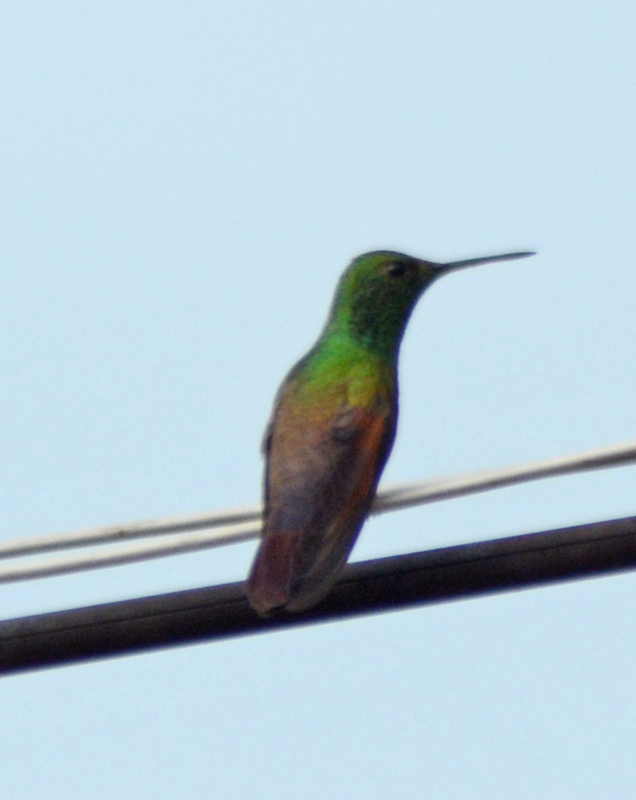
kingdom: Animalia
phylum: Chordata
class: Aves
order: Apodiformes
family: Trochilidae
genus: Saucerottia
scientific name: Saucerottia beryllina
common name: Berylline hummingbird
